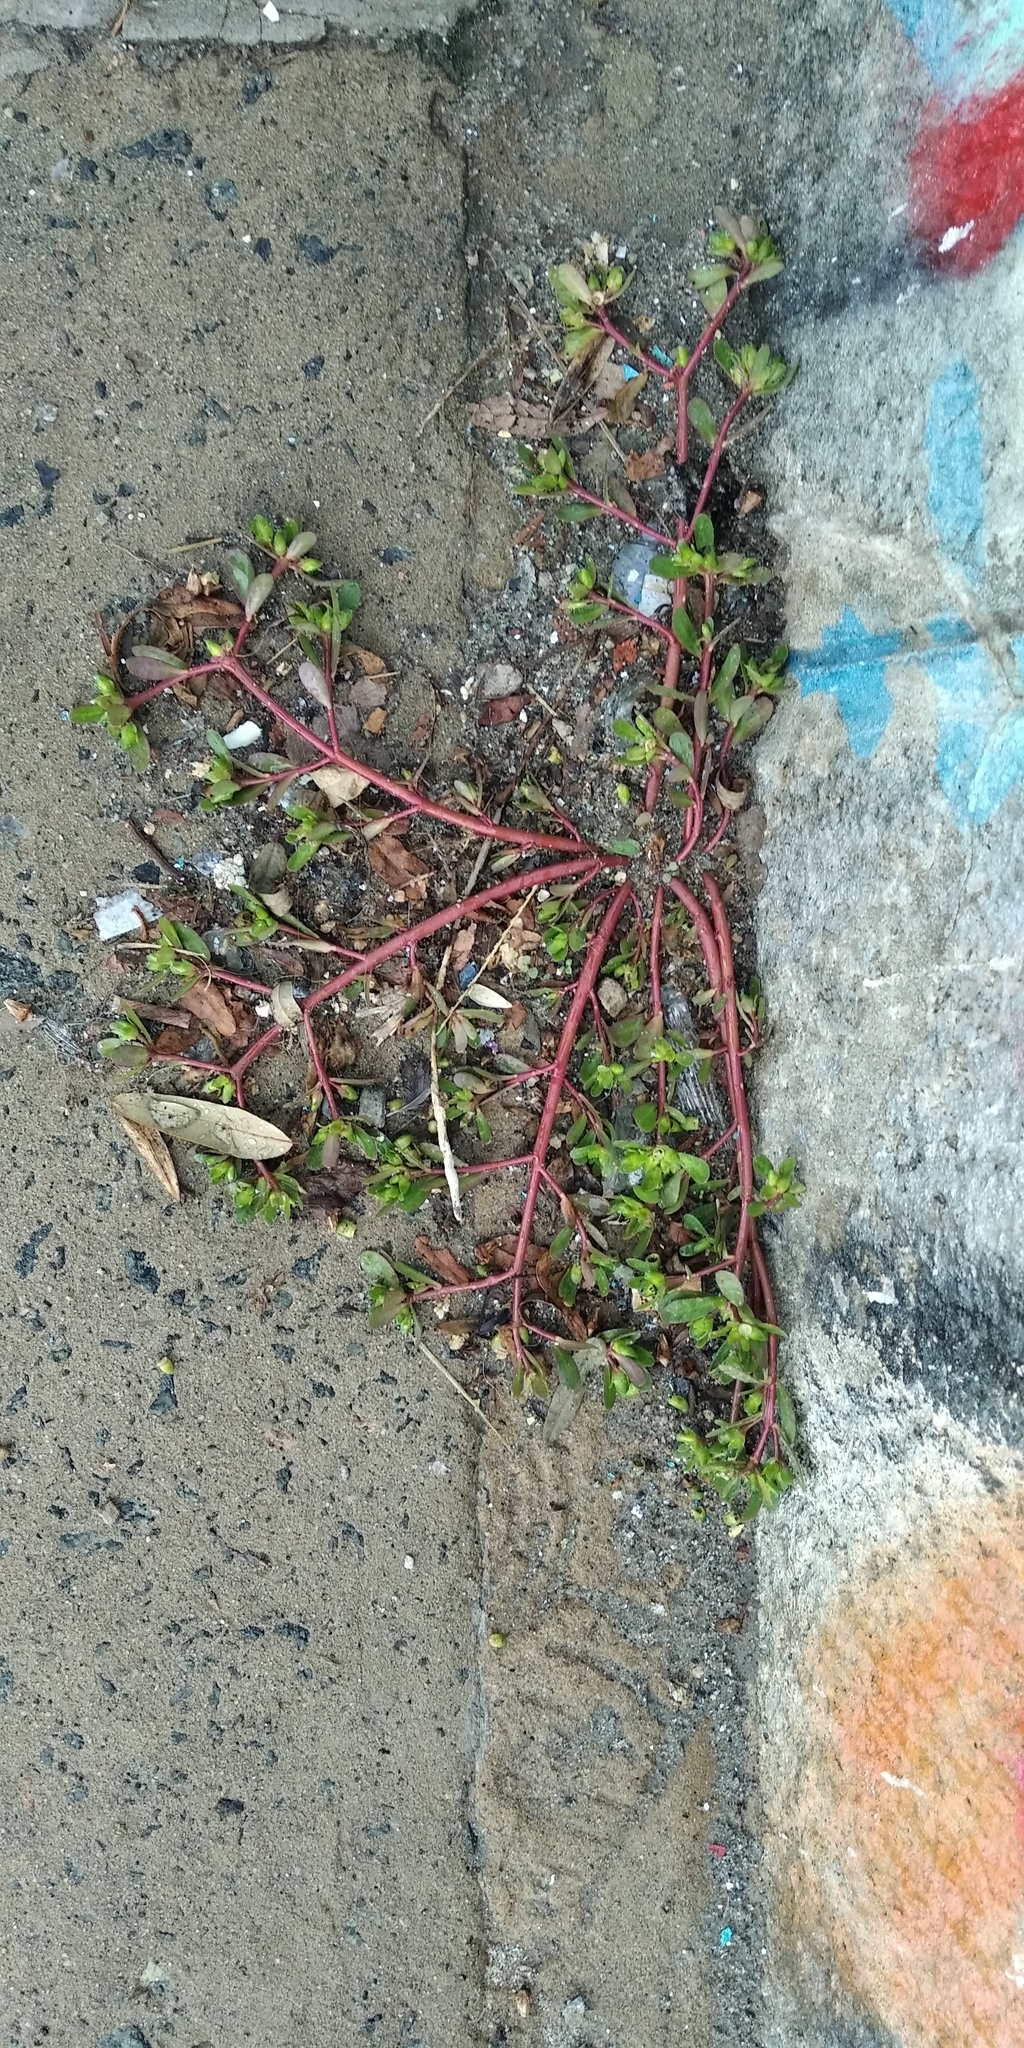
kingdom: Plantae
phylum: Tracheophyta
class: Magnoliopsida
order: Caryophyllales
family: Portulacaceae
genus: Portulaca
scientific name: Portulaca oleracea
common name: Common purslane
